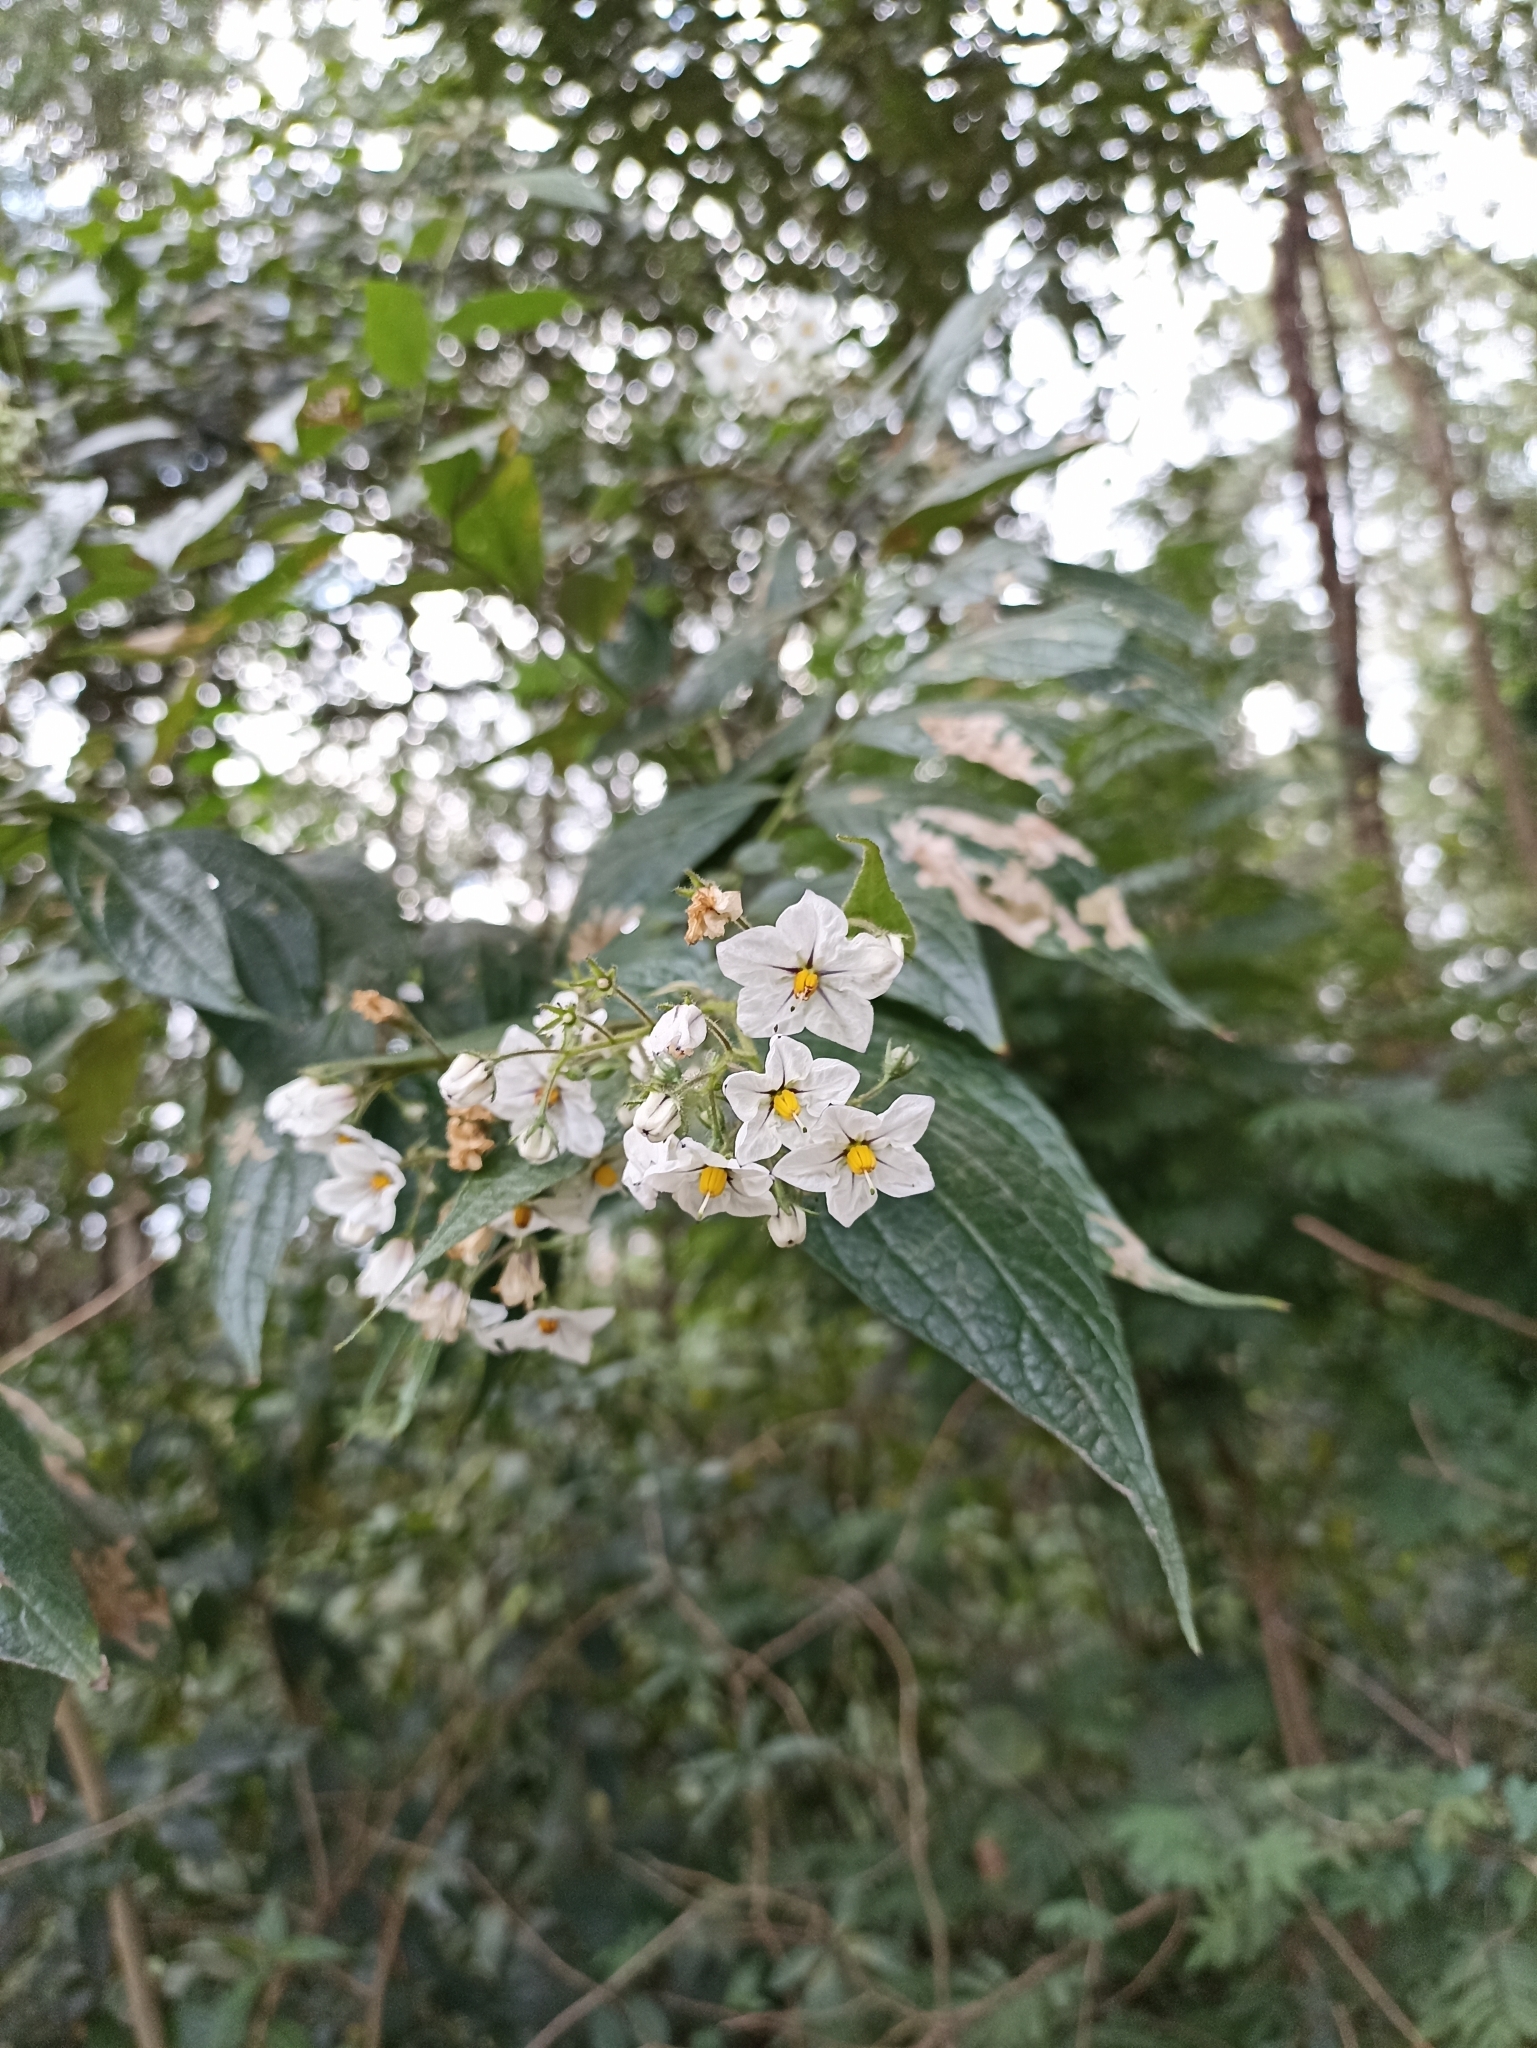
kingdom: Plantae
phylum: Tracheophyta
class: Magnoliopsida
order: Solanales
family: Solanaceae
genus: Solanum
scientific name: Solanum concinnum
